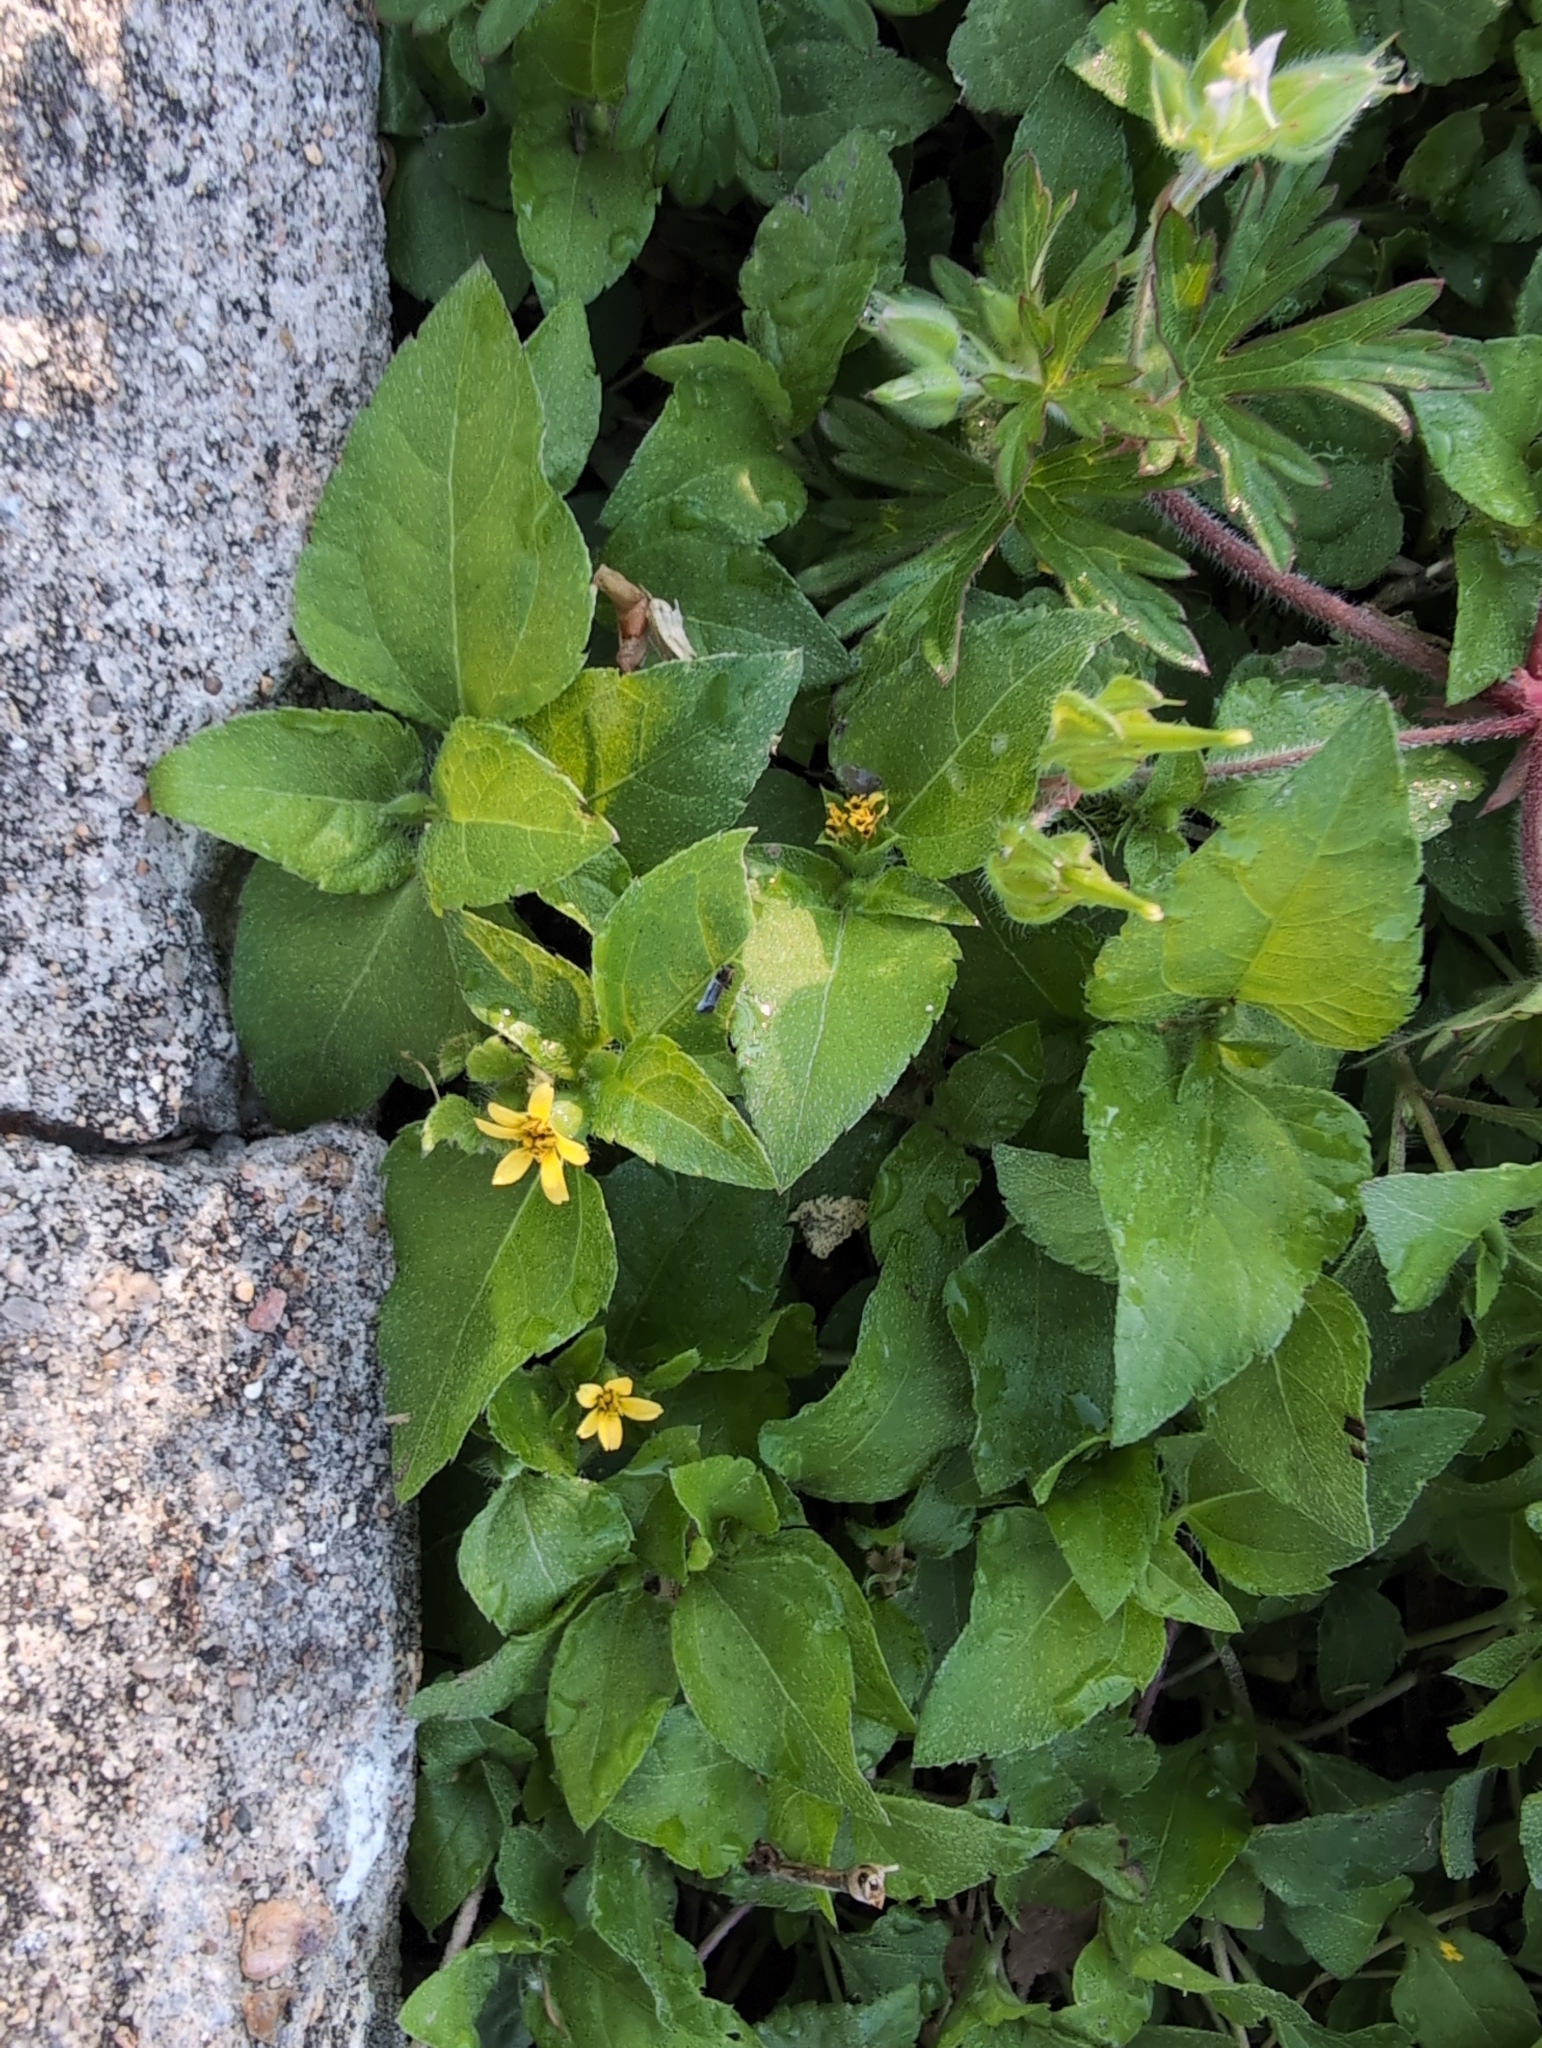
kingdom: Plantae
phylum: Tracheophyta
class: Magnoliopsida
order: Asterales
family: Asteraceae
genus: Calyptocarpus
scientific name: Calyptocarpus vialis
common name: Straggler daisy
